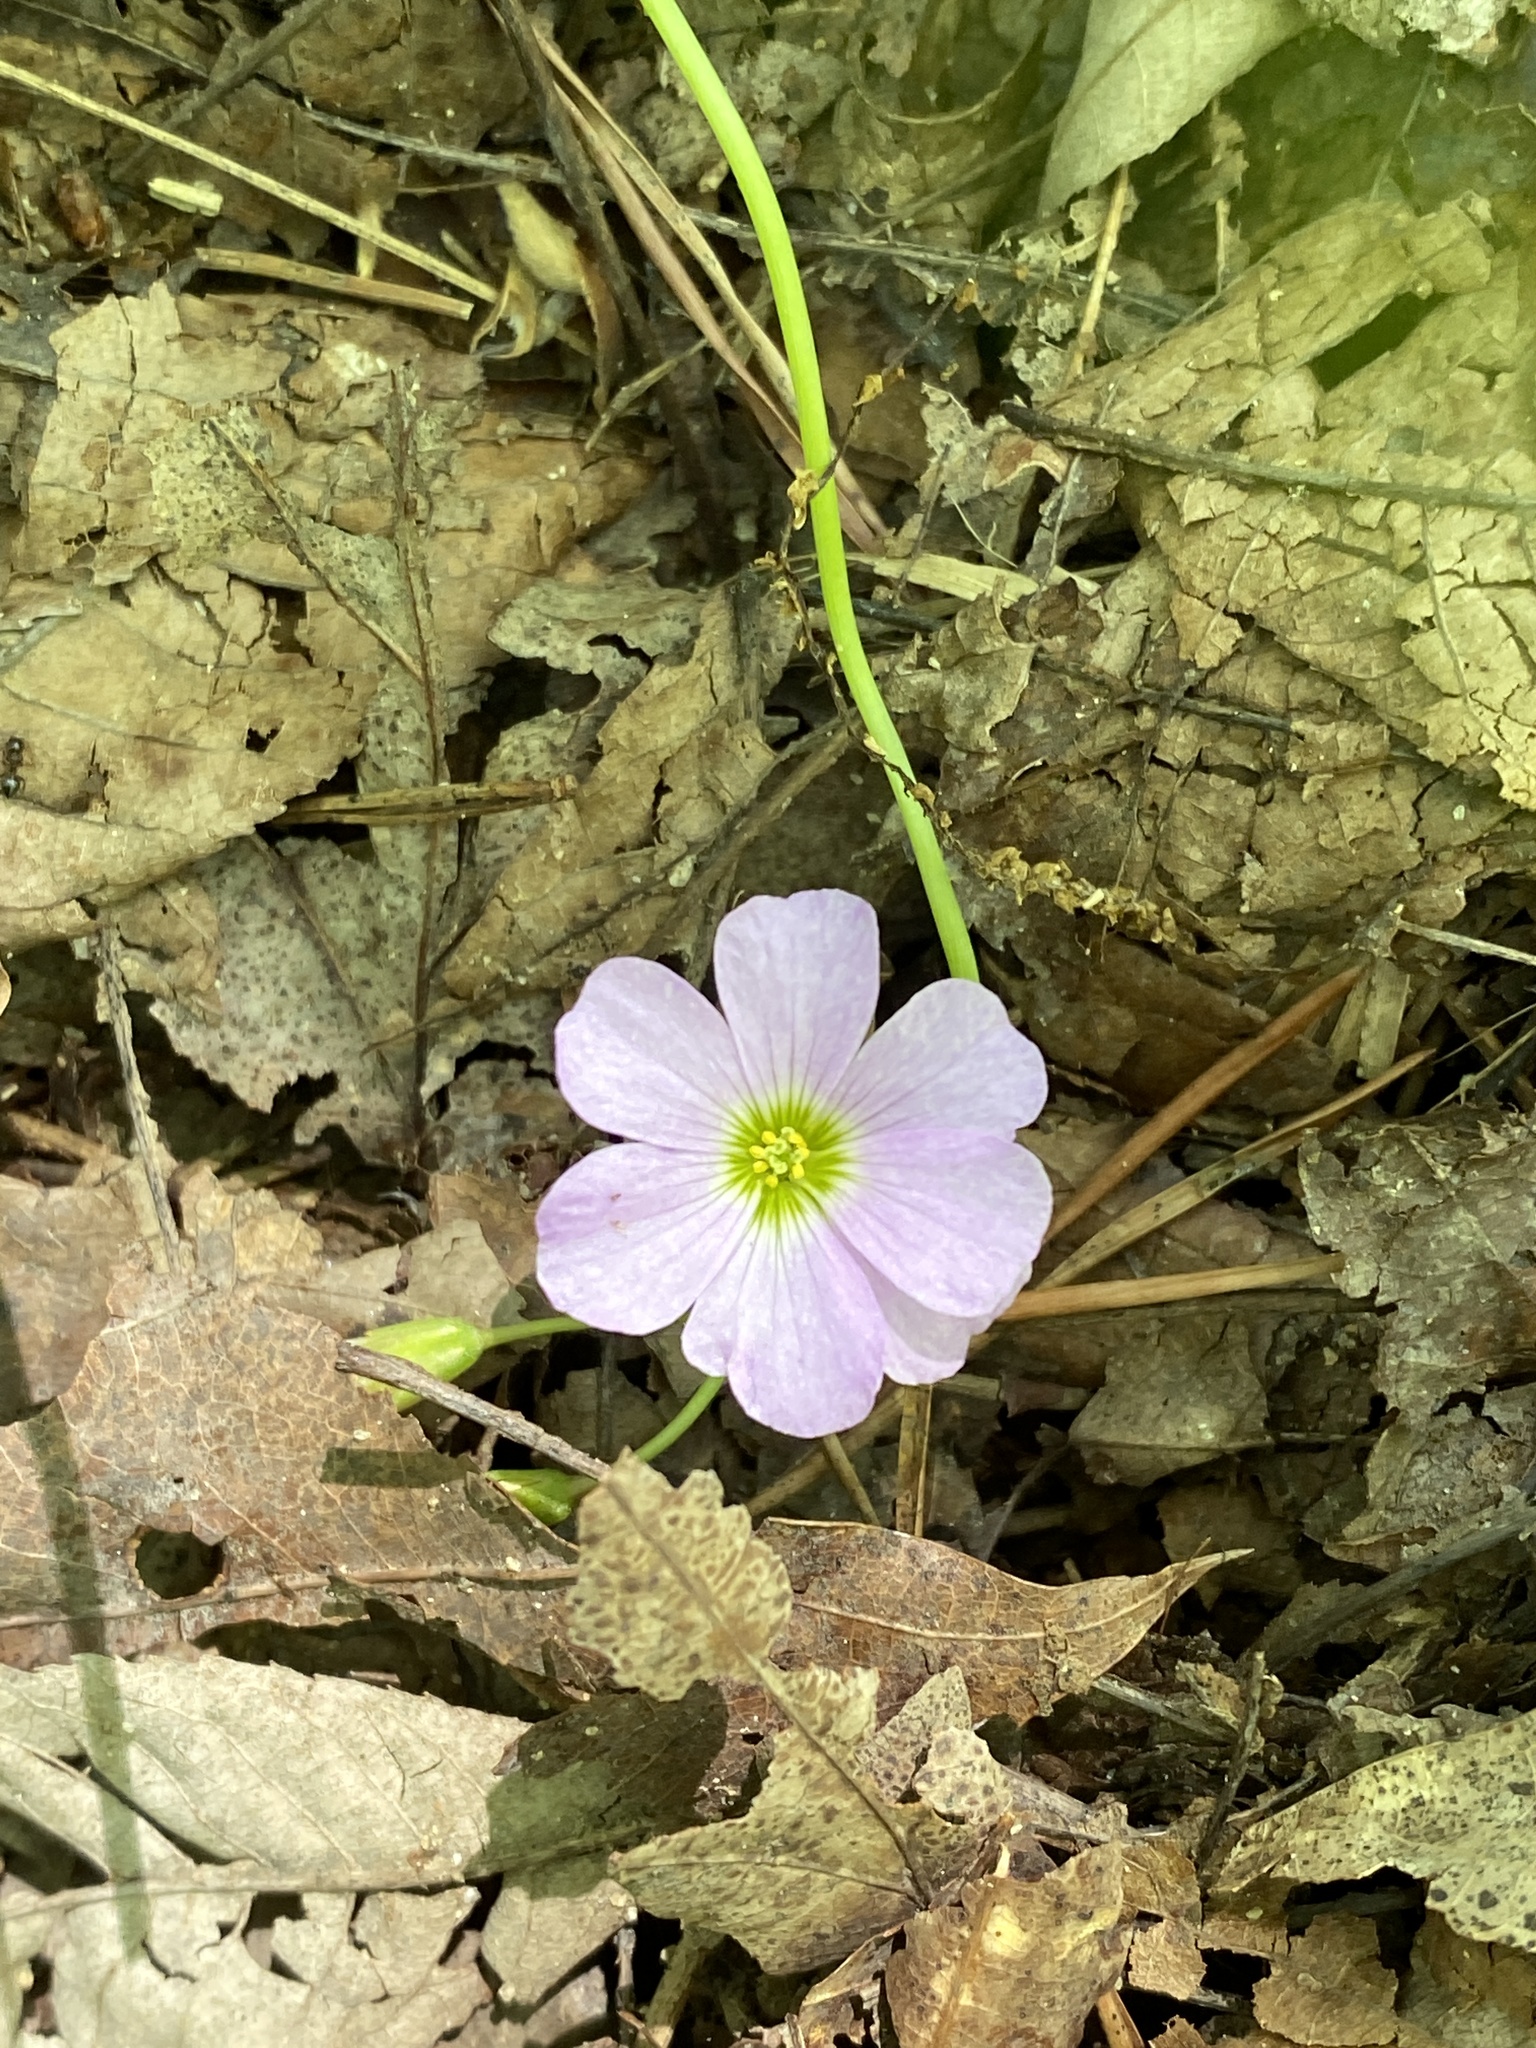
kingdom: Plantae
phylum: Tracheophyta
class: Magnoliopsida
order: Oxalidales
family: Oxalidaceae
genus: Oxalis
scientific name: Oxalis violacea
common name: Violet wood-sorrel
